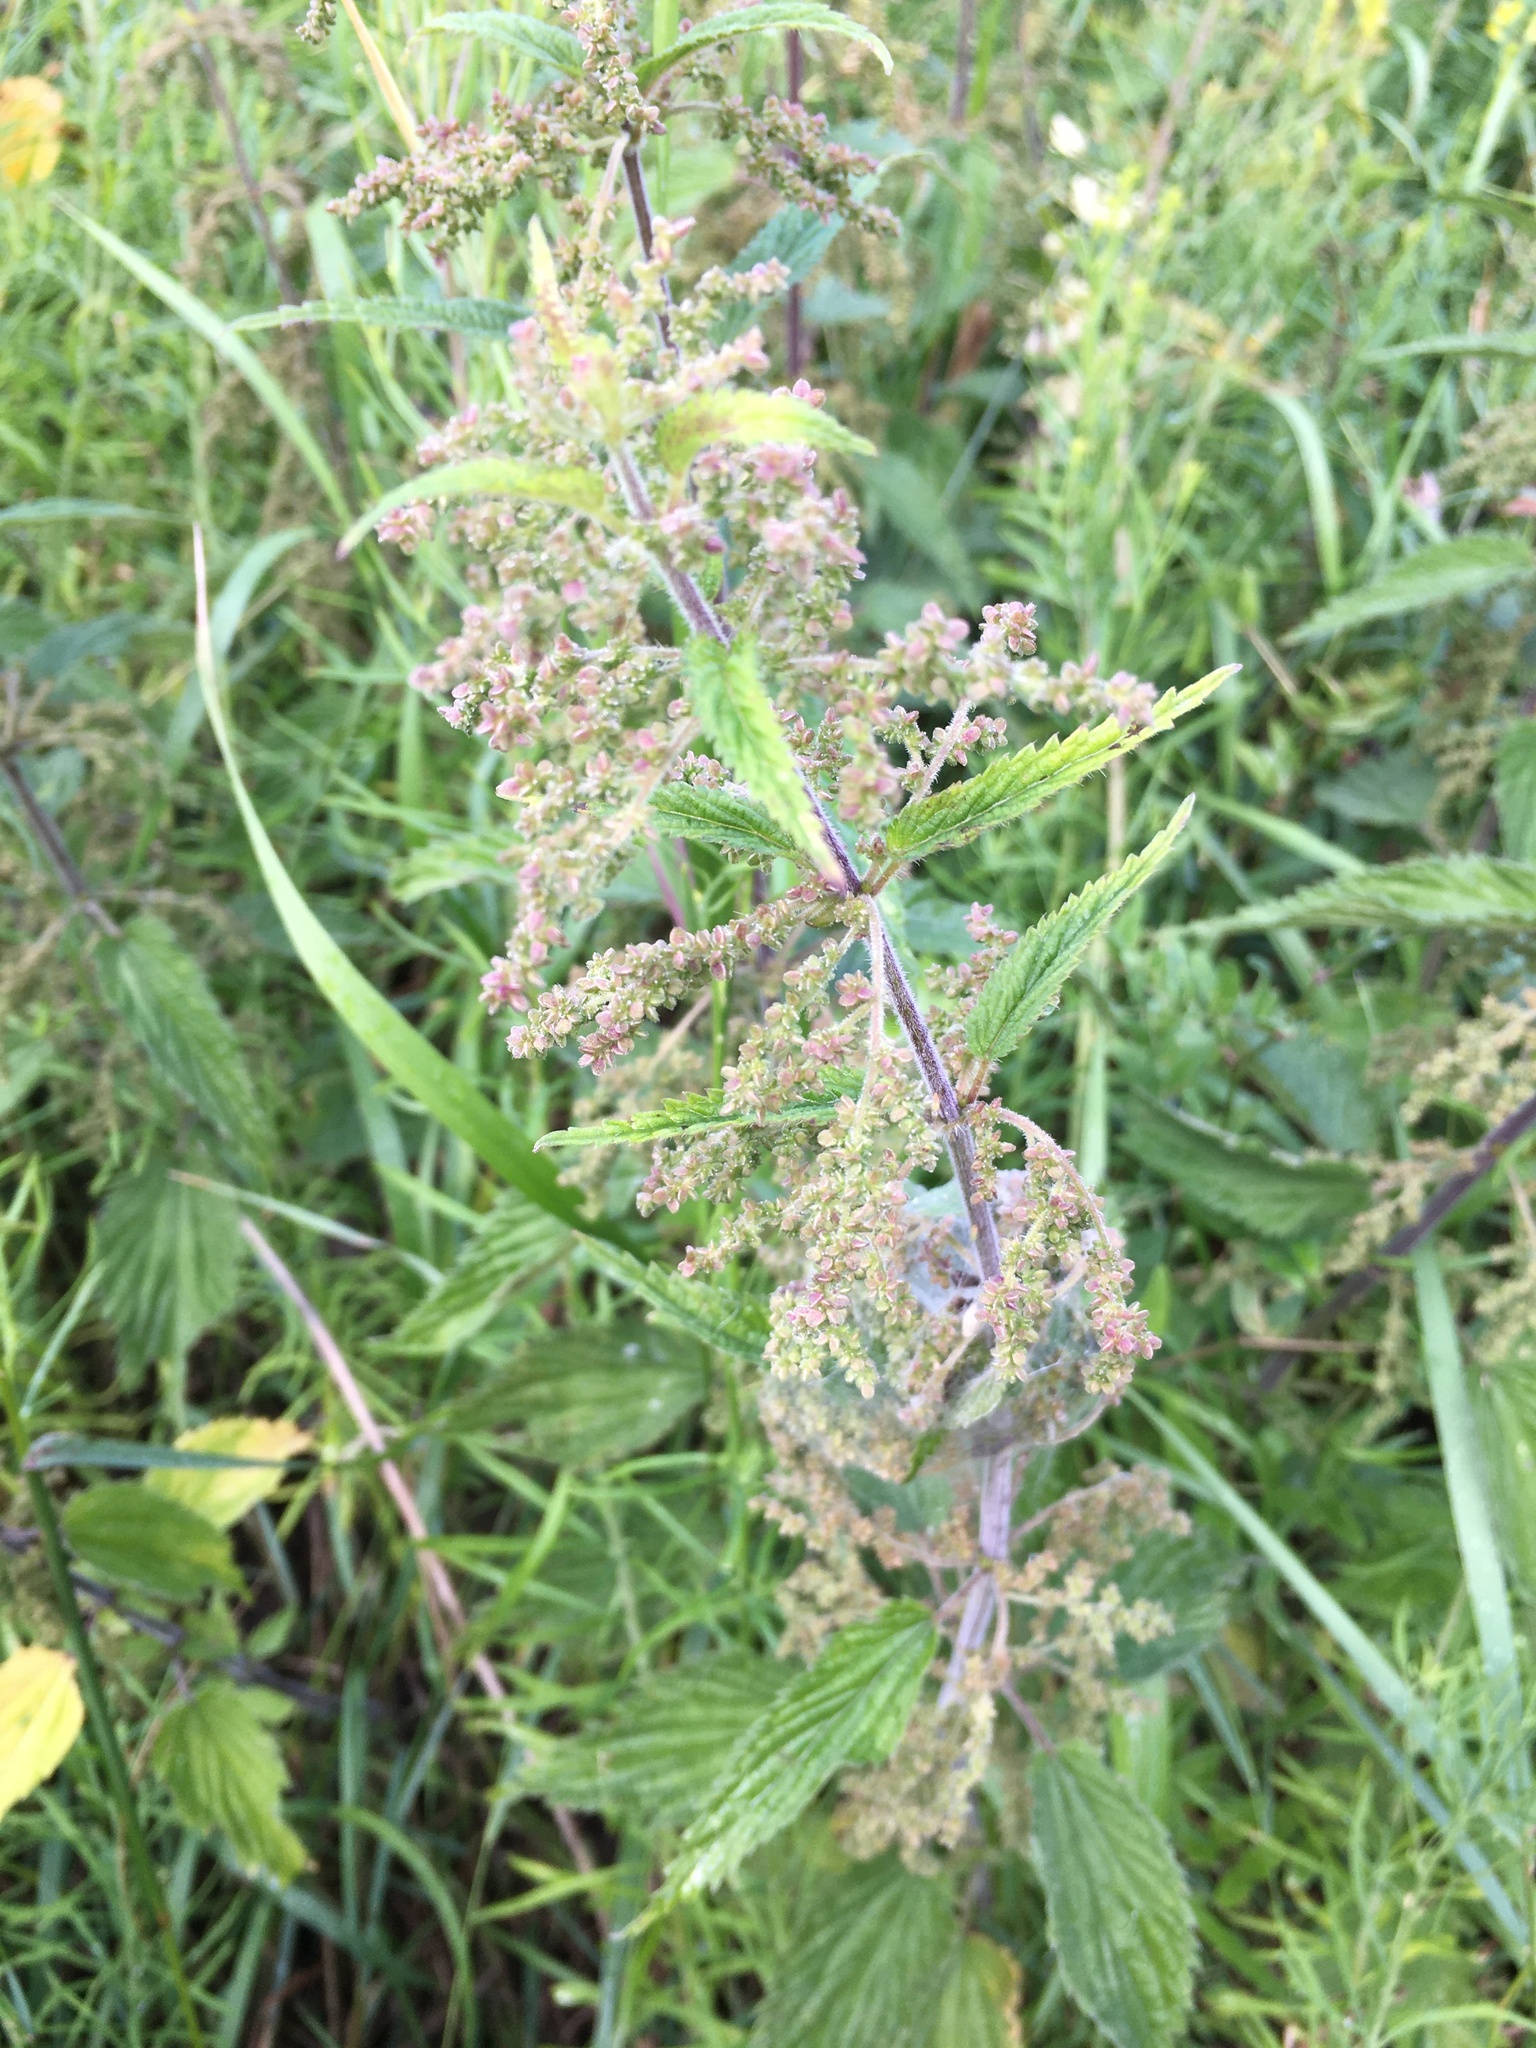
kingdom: Plantae
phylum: Tracheophyta
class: Magnoliopsida
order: Rosales
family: Urticaceae
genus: Urtica
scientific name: Urtica dioica
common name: Common nettle
